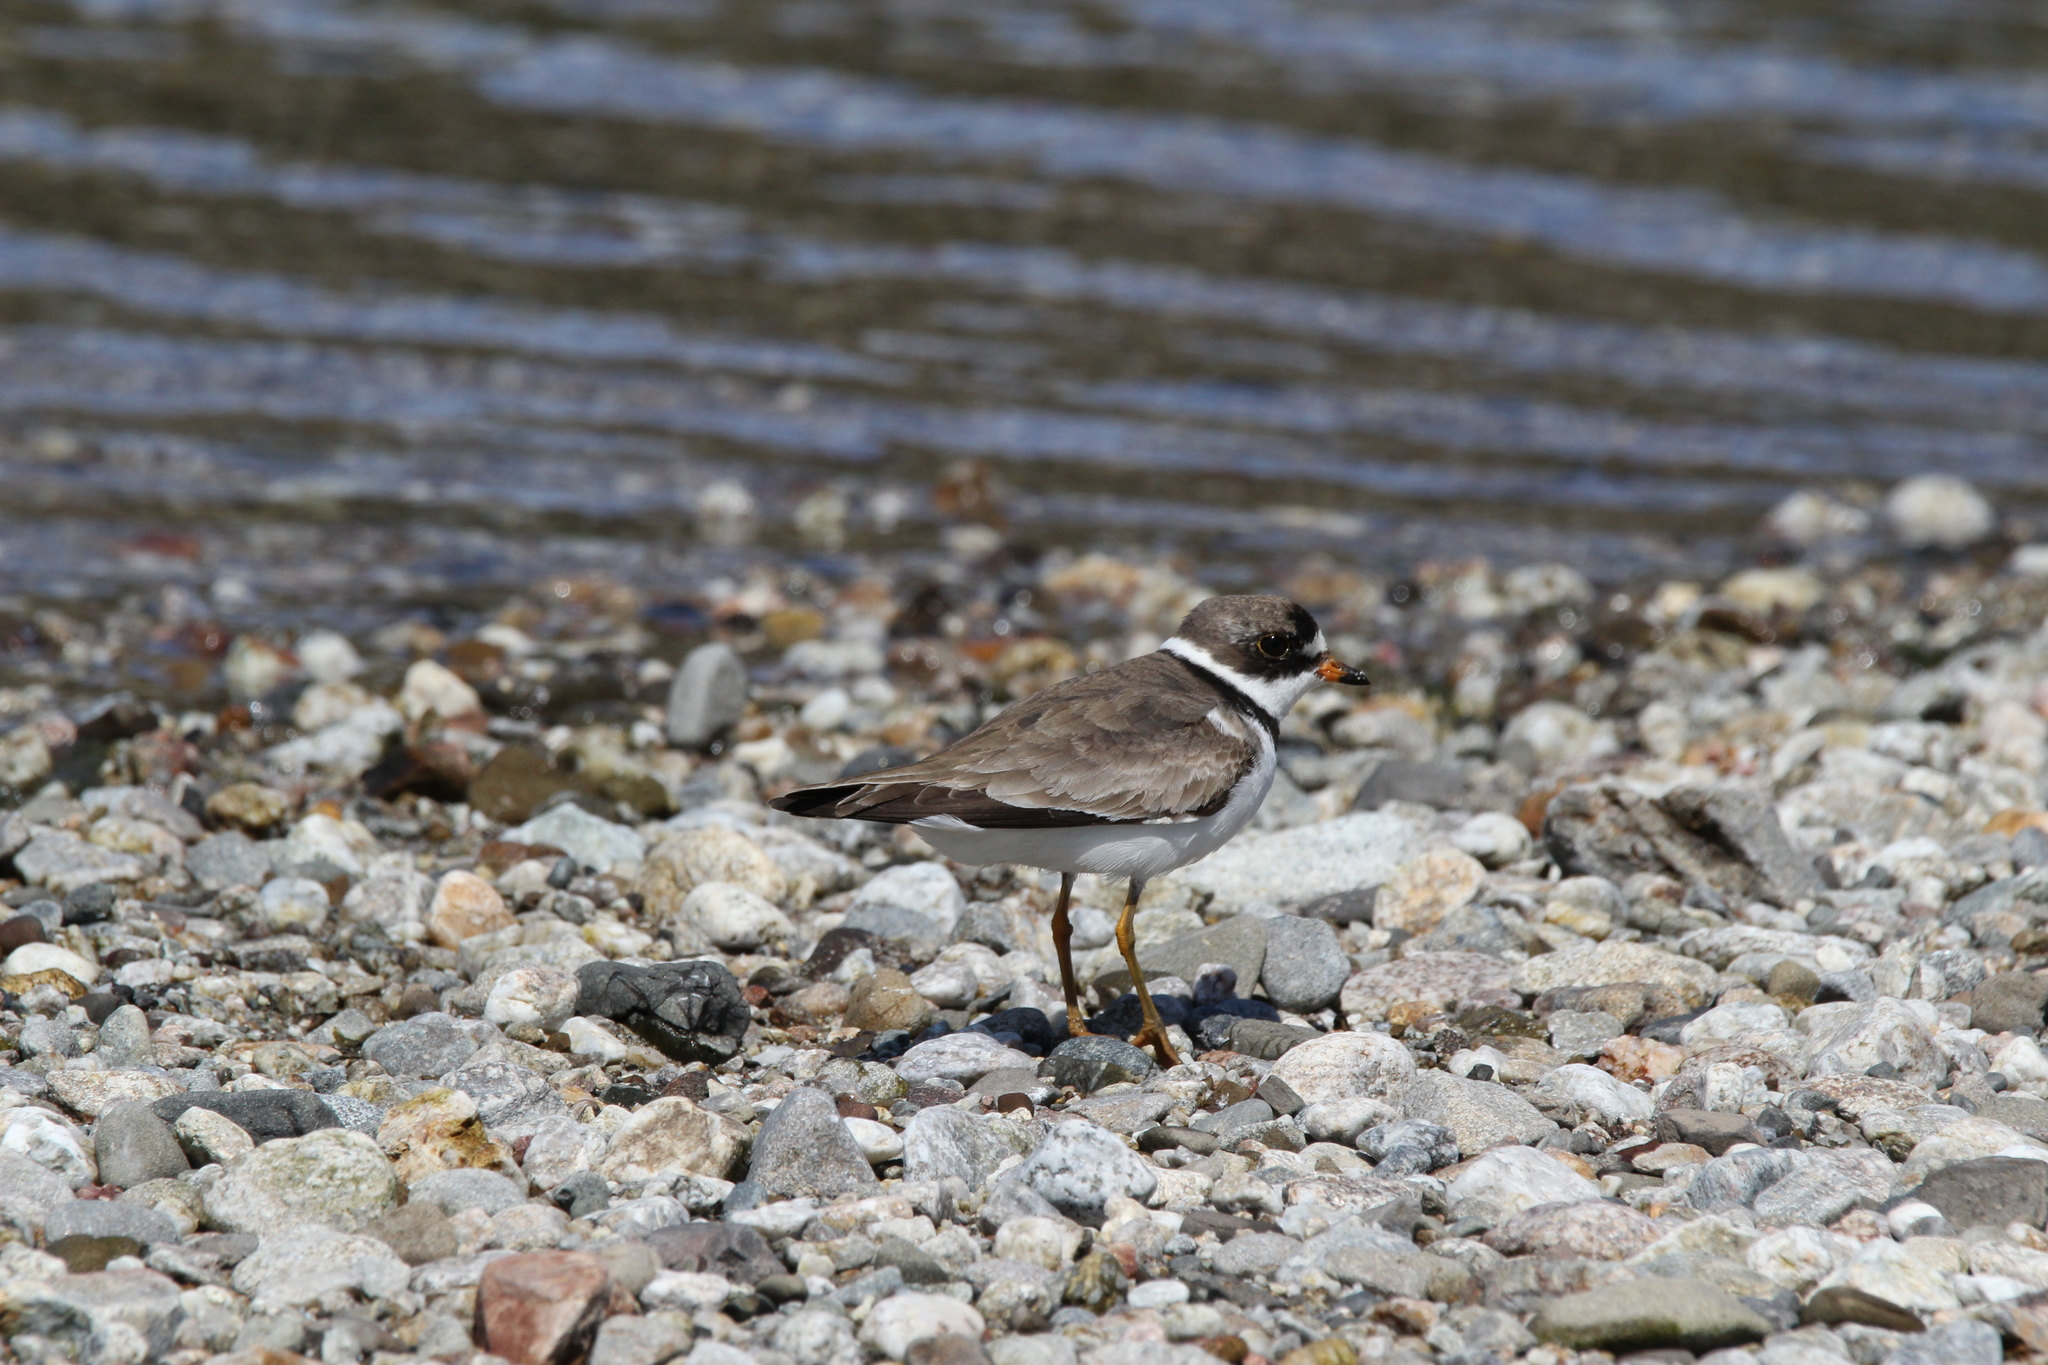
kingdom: Animalia
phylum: Chordata
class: Aves
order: Charadriiformes
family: Charadriidae
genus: Charadrius
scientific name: Charadrius semipalmatus
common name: Semipalmated plover
